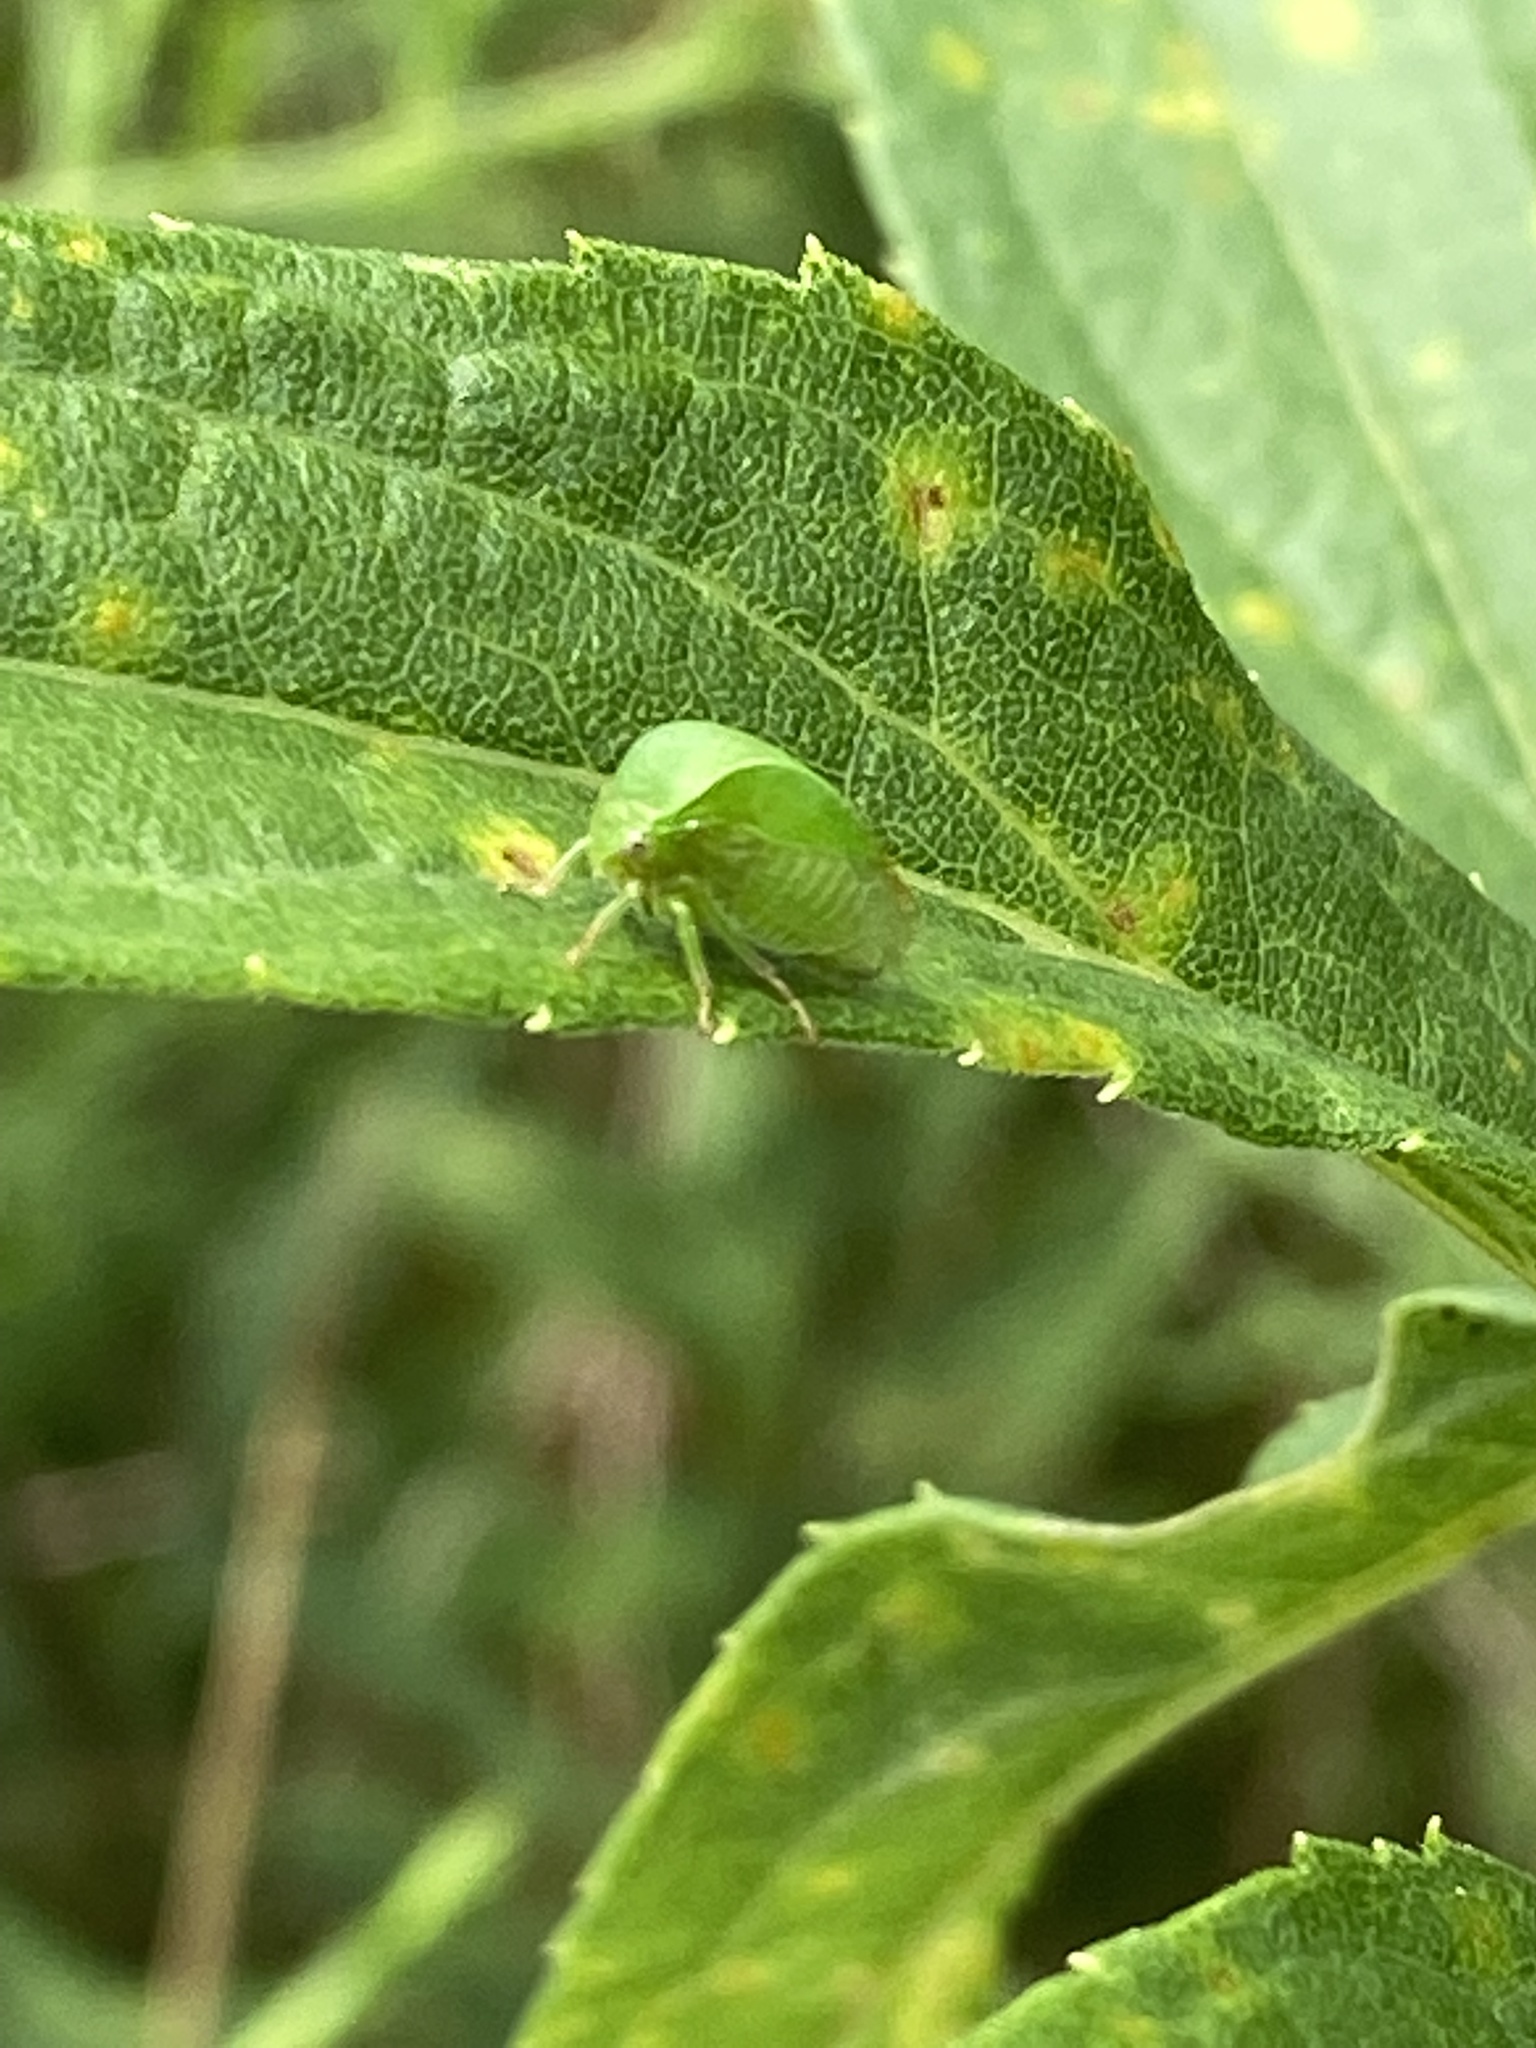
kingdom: Animalia
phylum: Arthropoda
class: Insecta
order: Hemiptera
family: Membracidae
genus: Spissistilus
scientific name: Spissistilus festina
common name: Membracid bug
